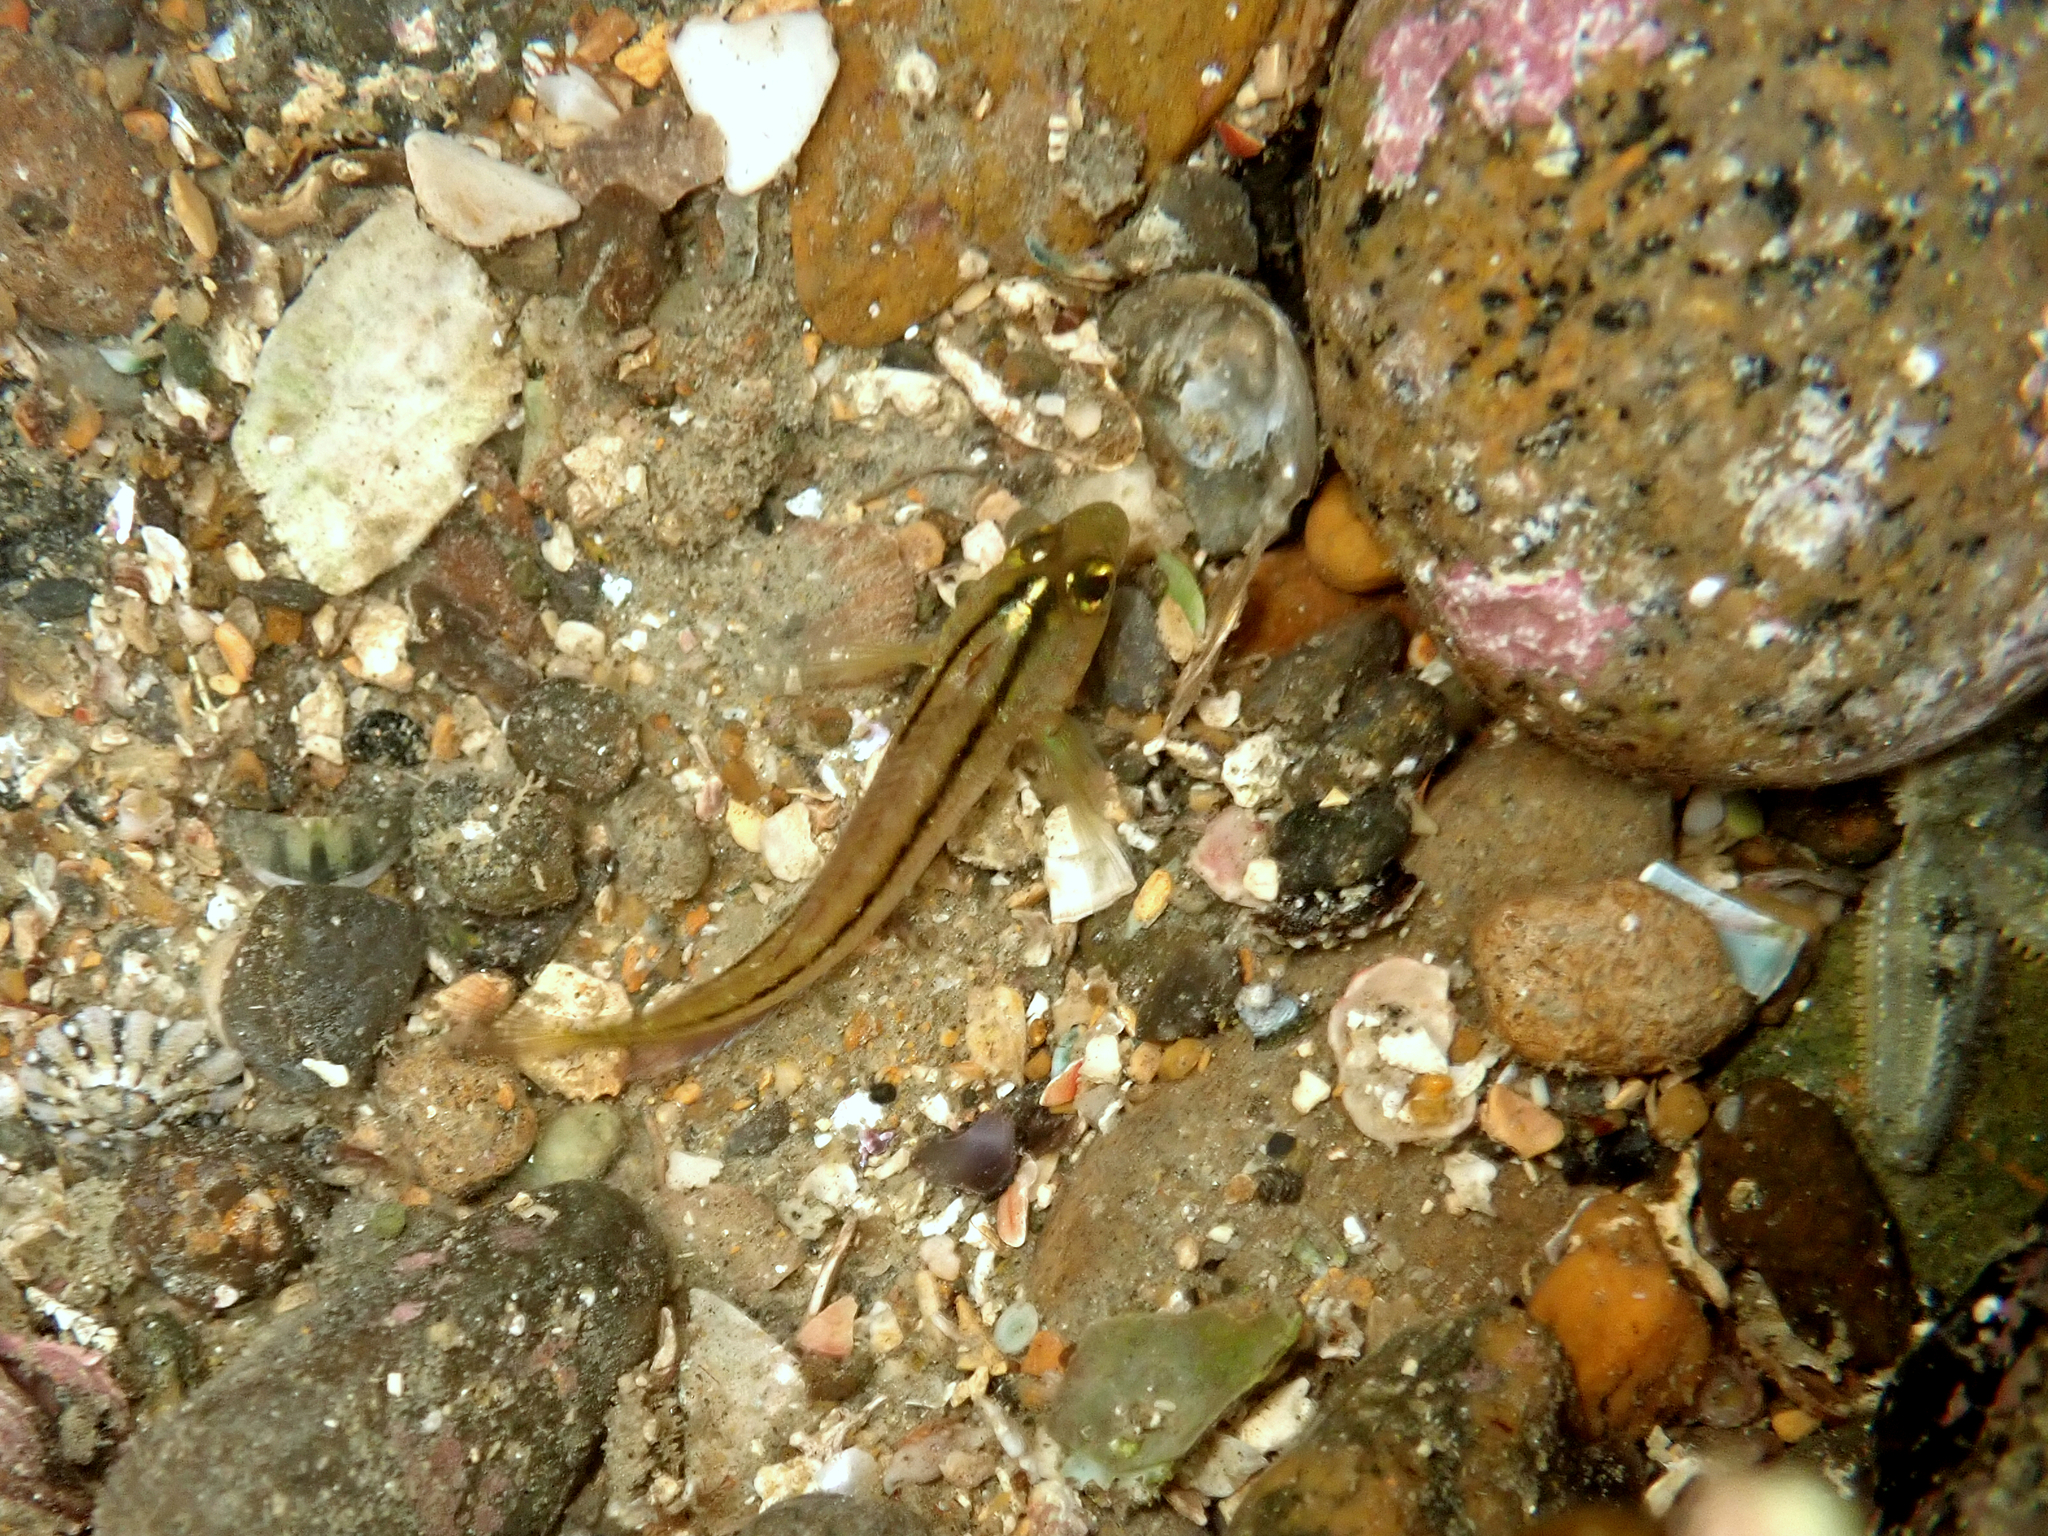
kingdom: Animalia
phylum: Chordata
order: Perciformes
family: Tripterygiidae
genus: Forsterygion
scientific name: Forsterygion lapillum
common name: Common triplefin
